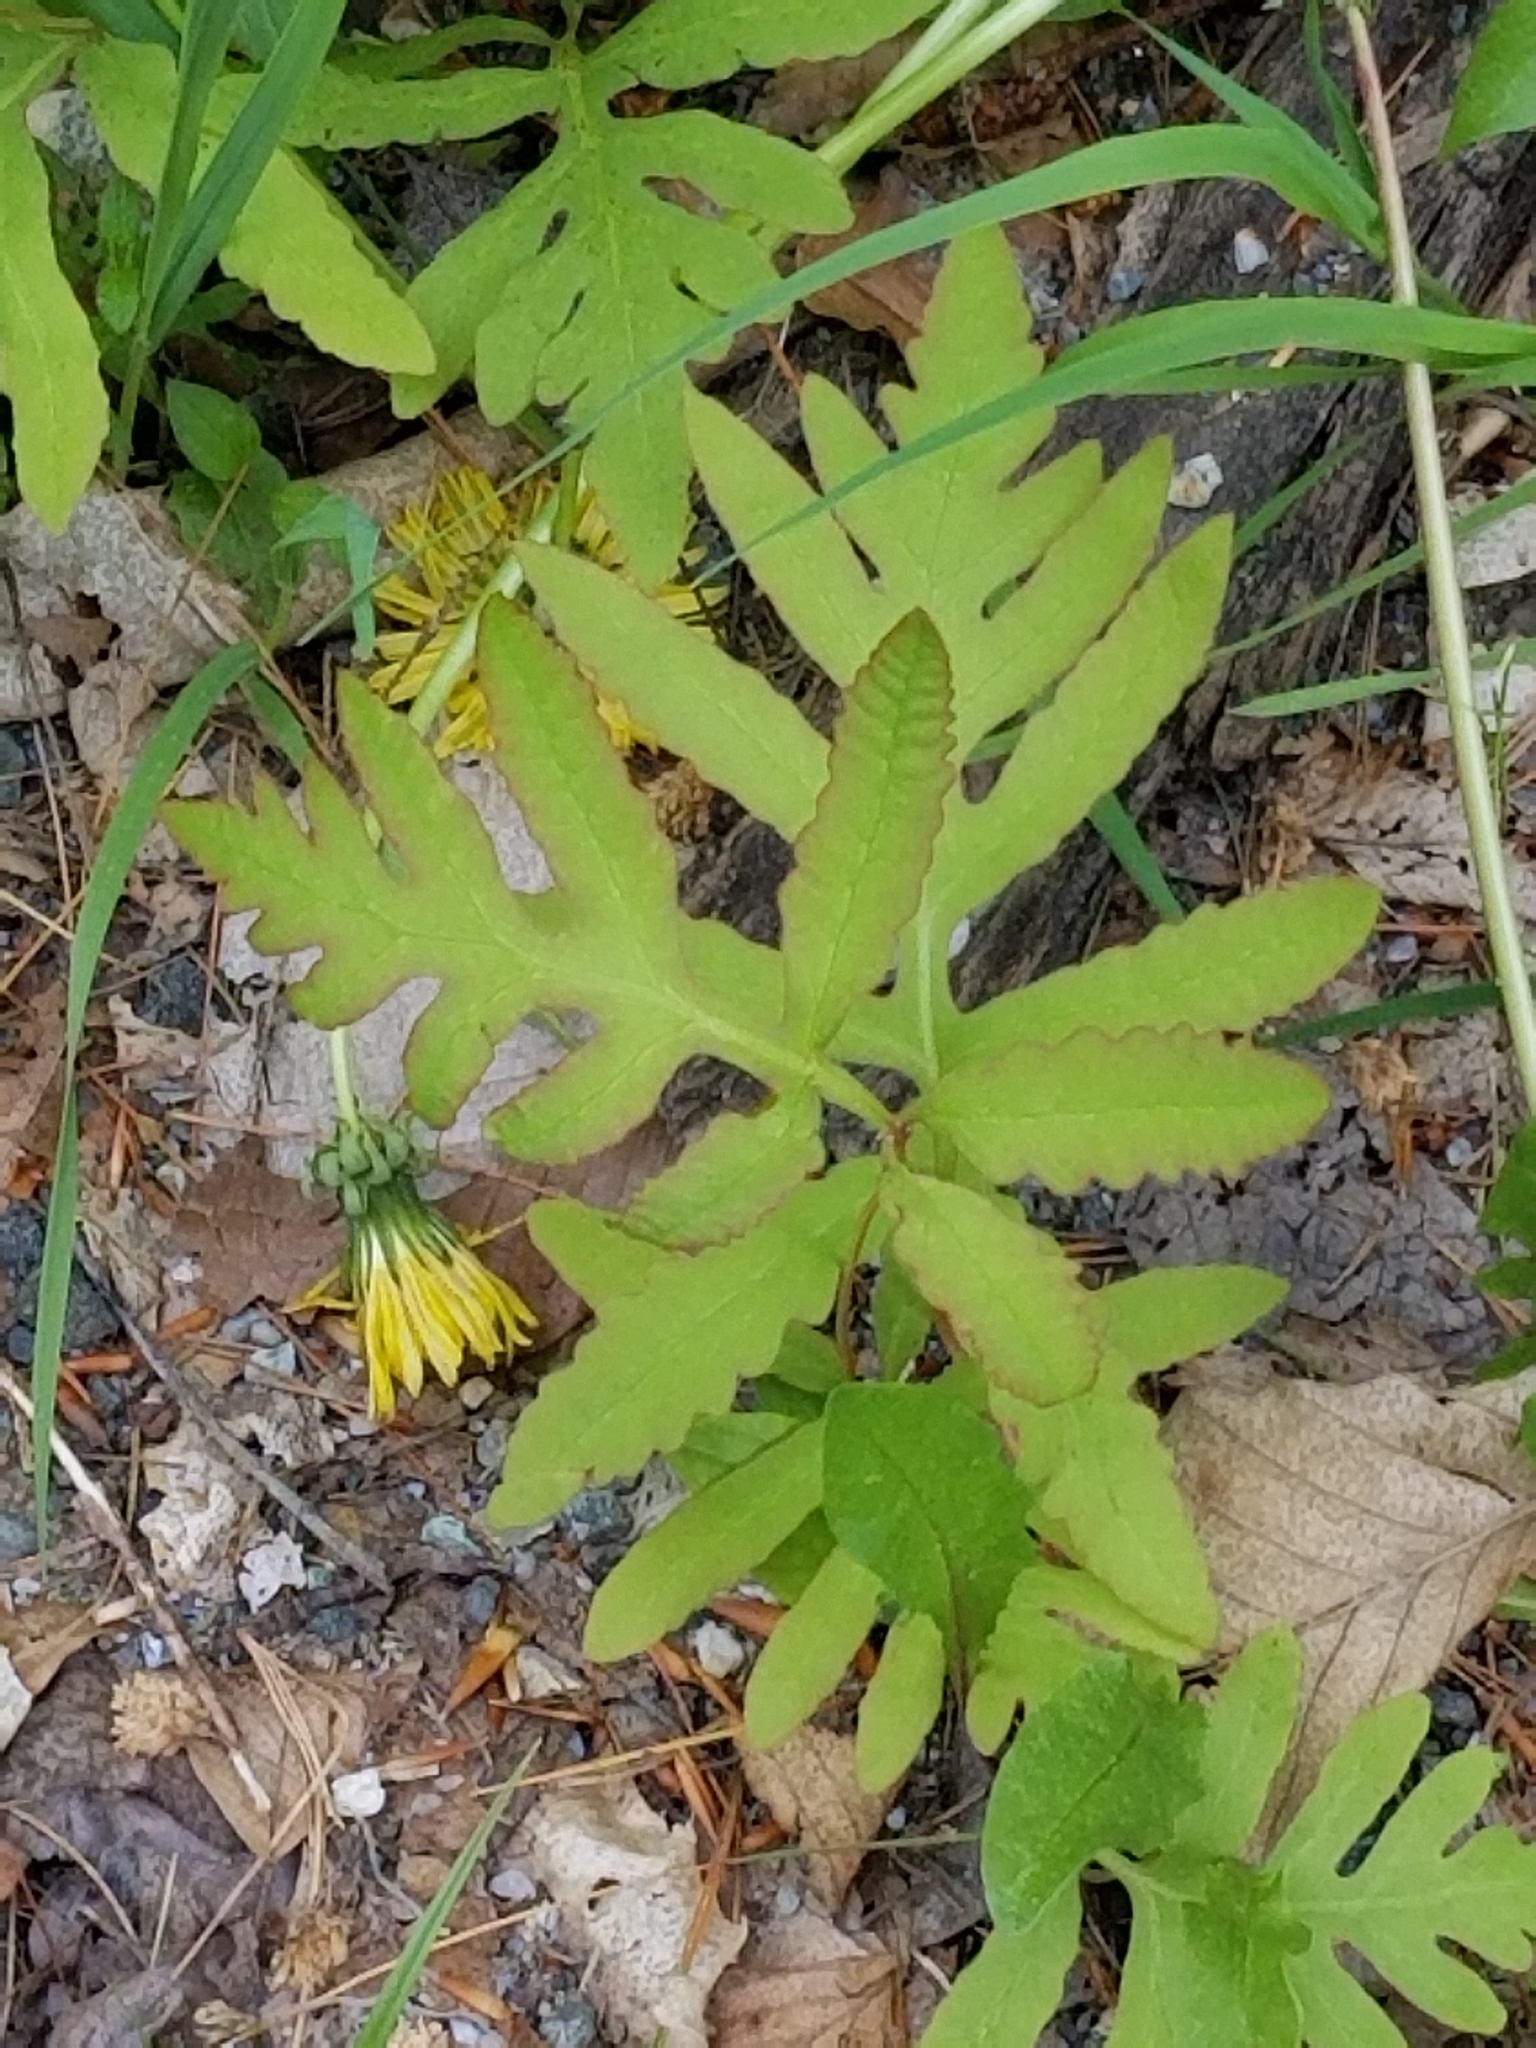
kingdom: Plantae
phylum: Tracheophyta
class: Polypodiopsida
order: Polypodiales
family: Onocleaceae
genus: Onoclea
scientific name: Onoclea sensibilis
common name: Sensitive fern
